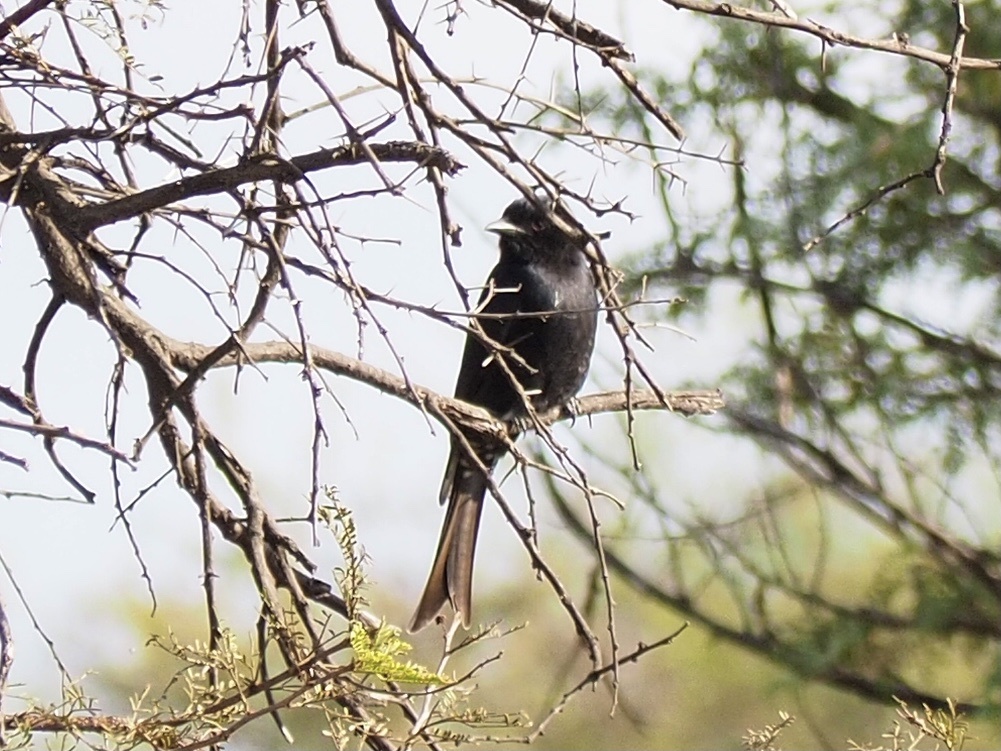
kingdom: Animalia
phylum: Chordata
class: Aves
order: Passeriformes
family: Dicruridae
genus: Dicrurus
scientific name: Dicrurus adsimilis
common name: Fork-tailed drongo
